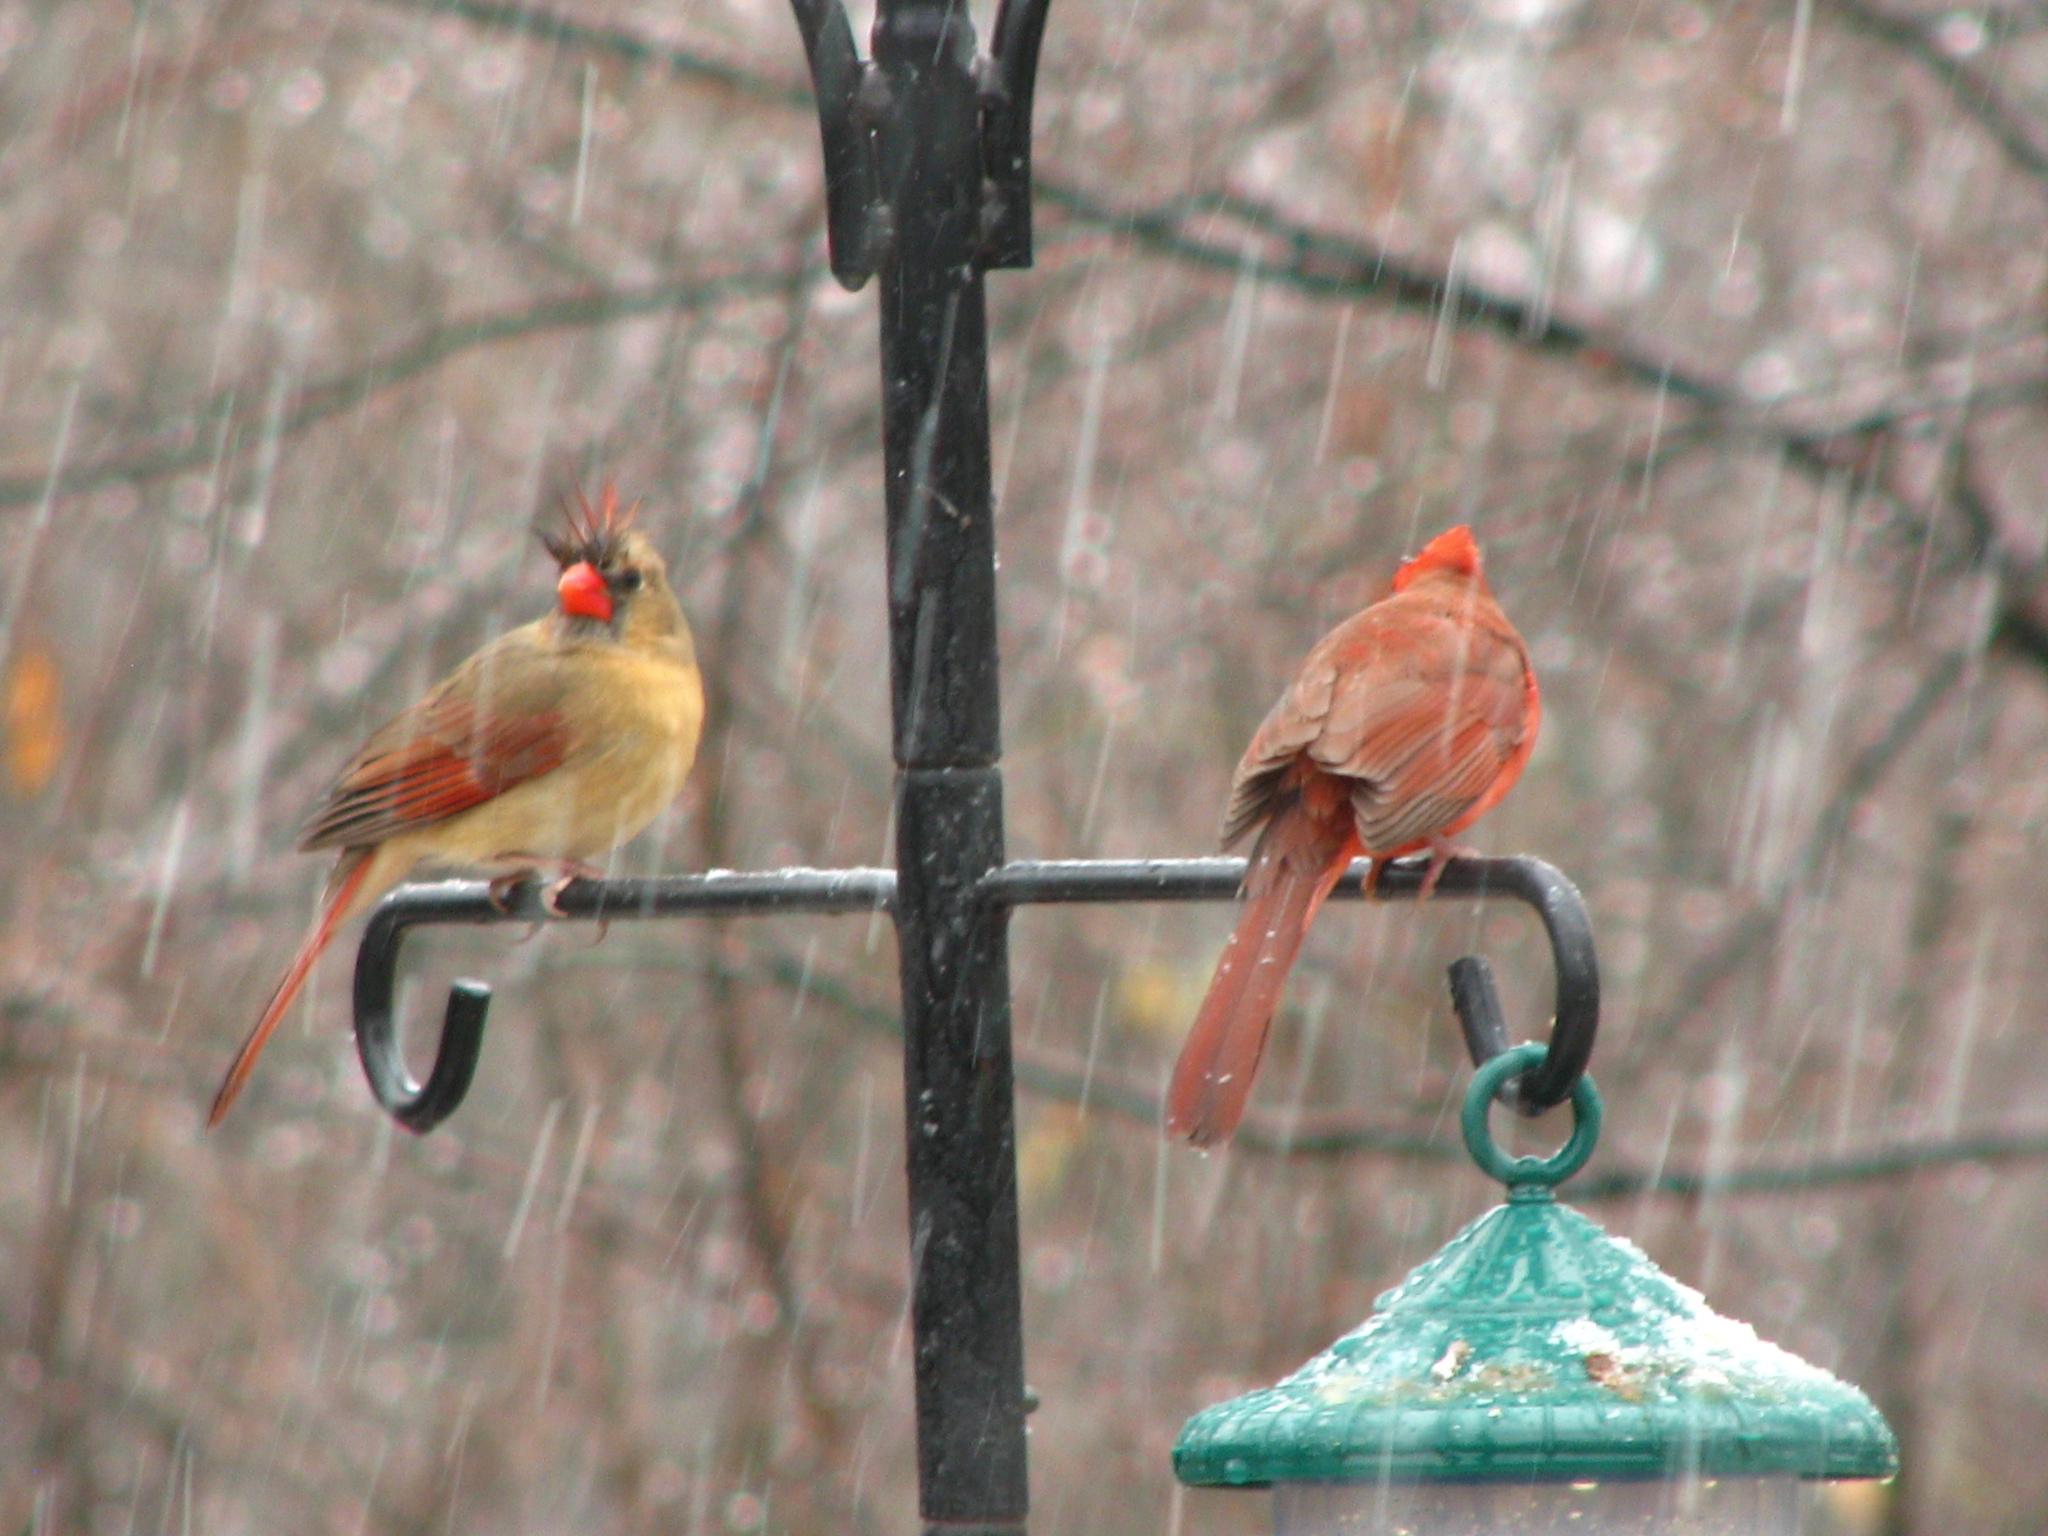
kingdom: Animalia
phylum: Chordata
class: Aves
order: Passeriformes
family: Cardinalidae
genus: Cardinalis
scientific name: Cardinalis cardinalis
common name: Northern cardinal
